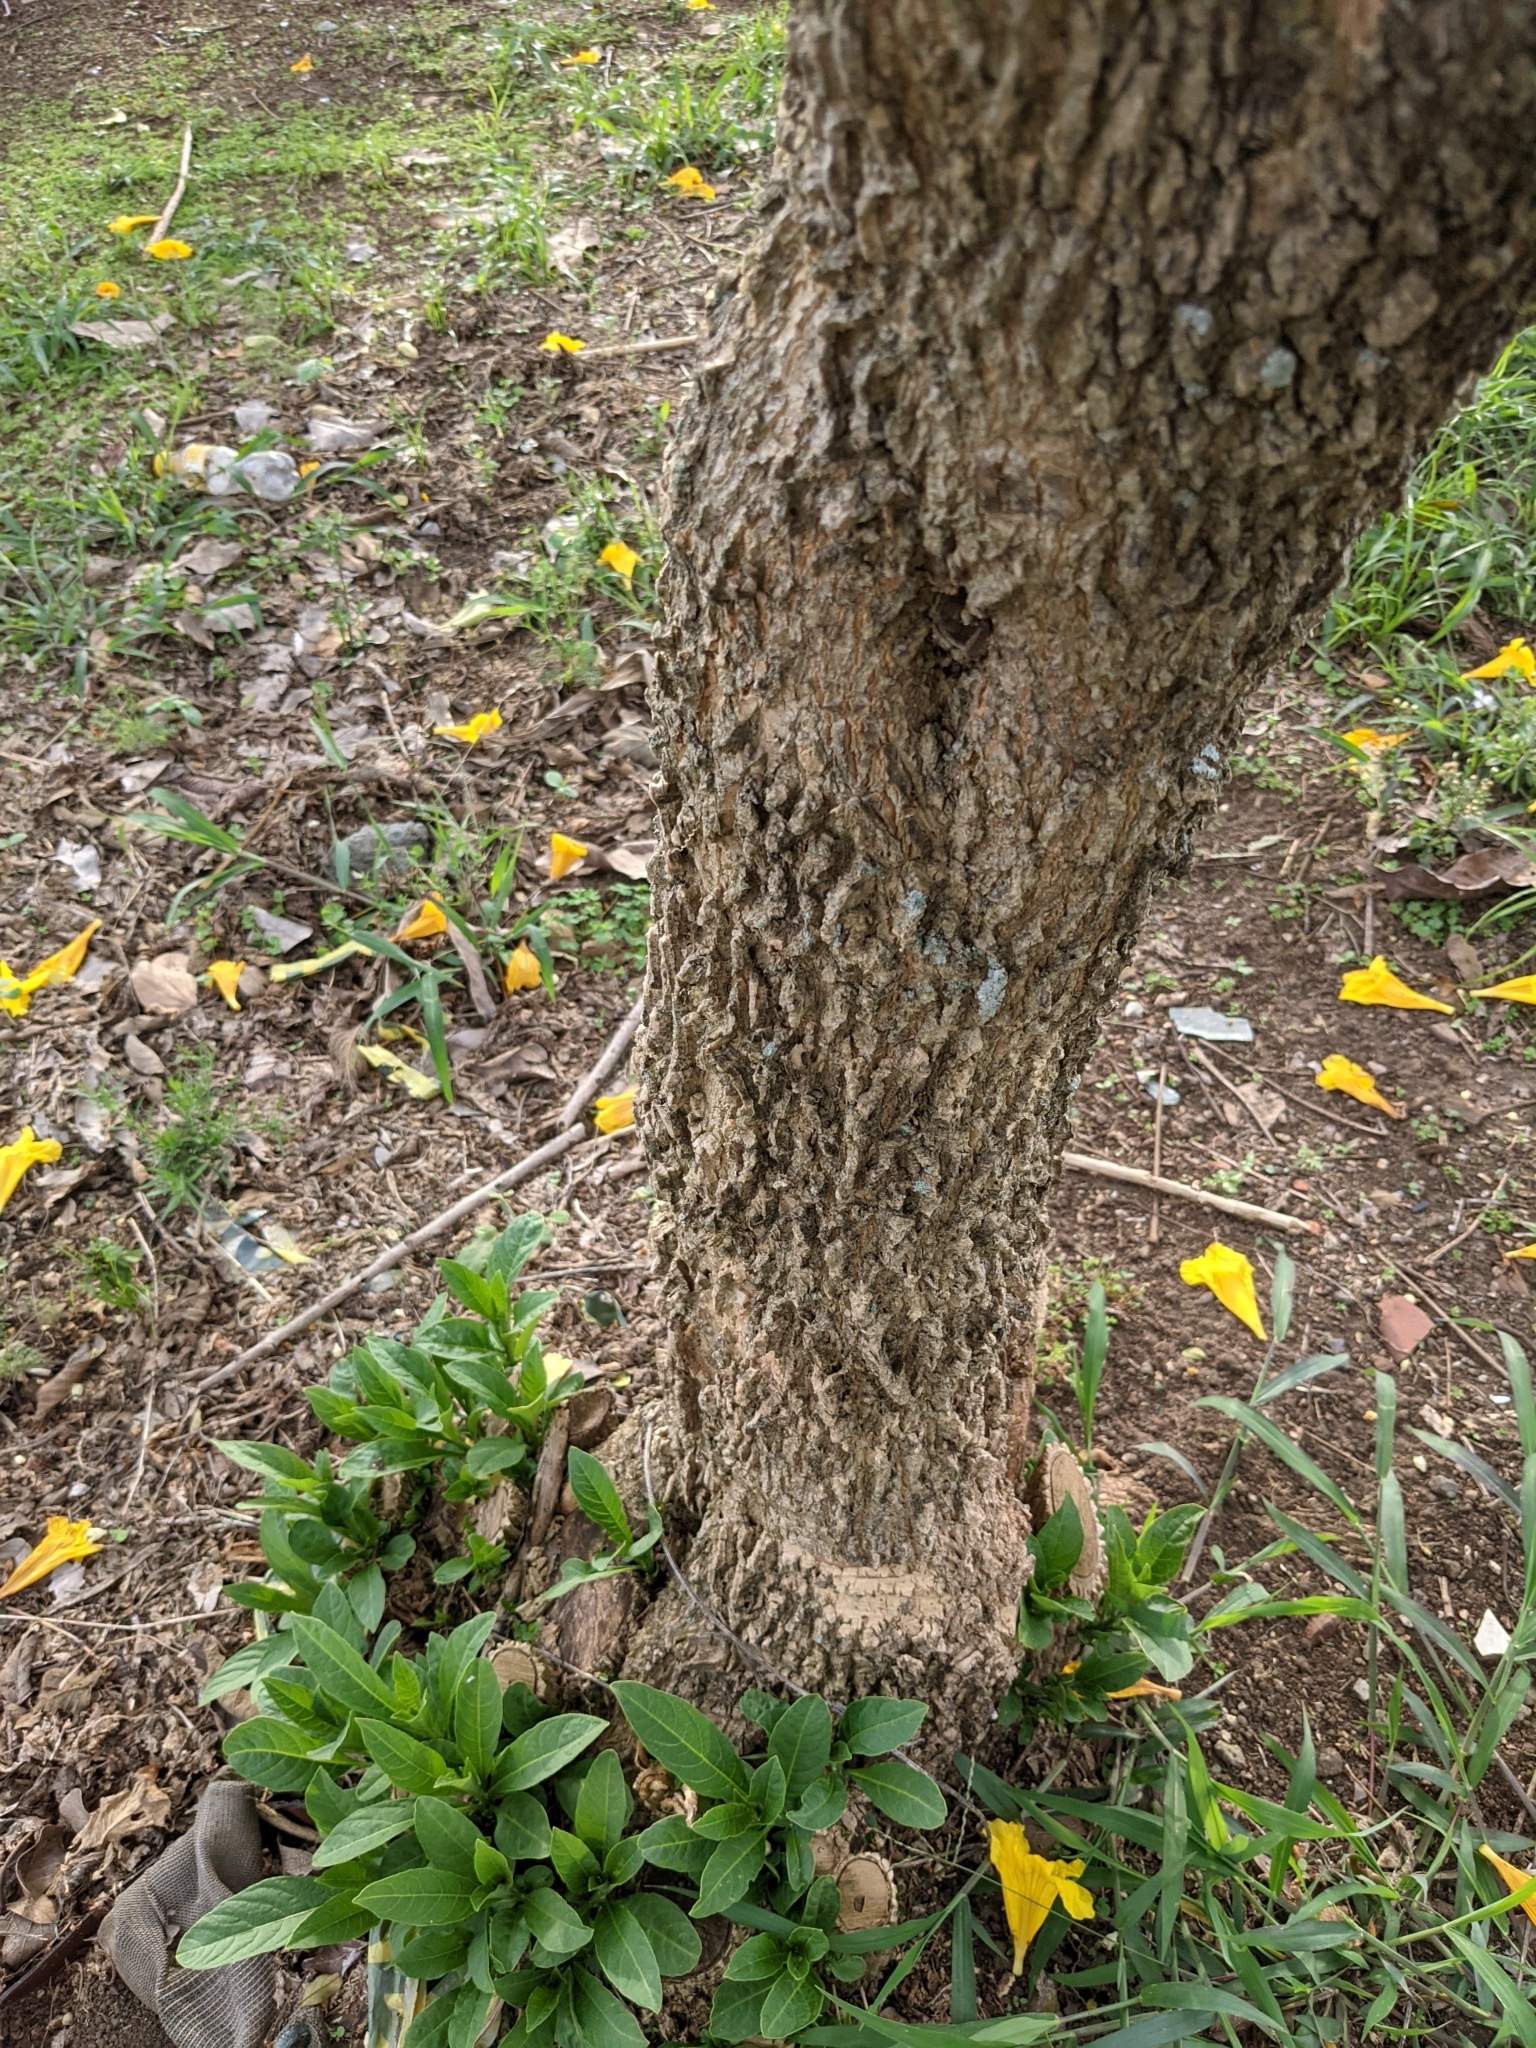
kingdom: Plantae
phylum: Tracheophyta
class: Magnoliopsida
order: Solanales
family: Solanaceae
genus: Iochroma
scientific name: Iochroma arborescens
